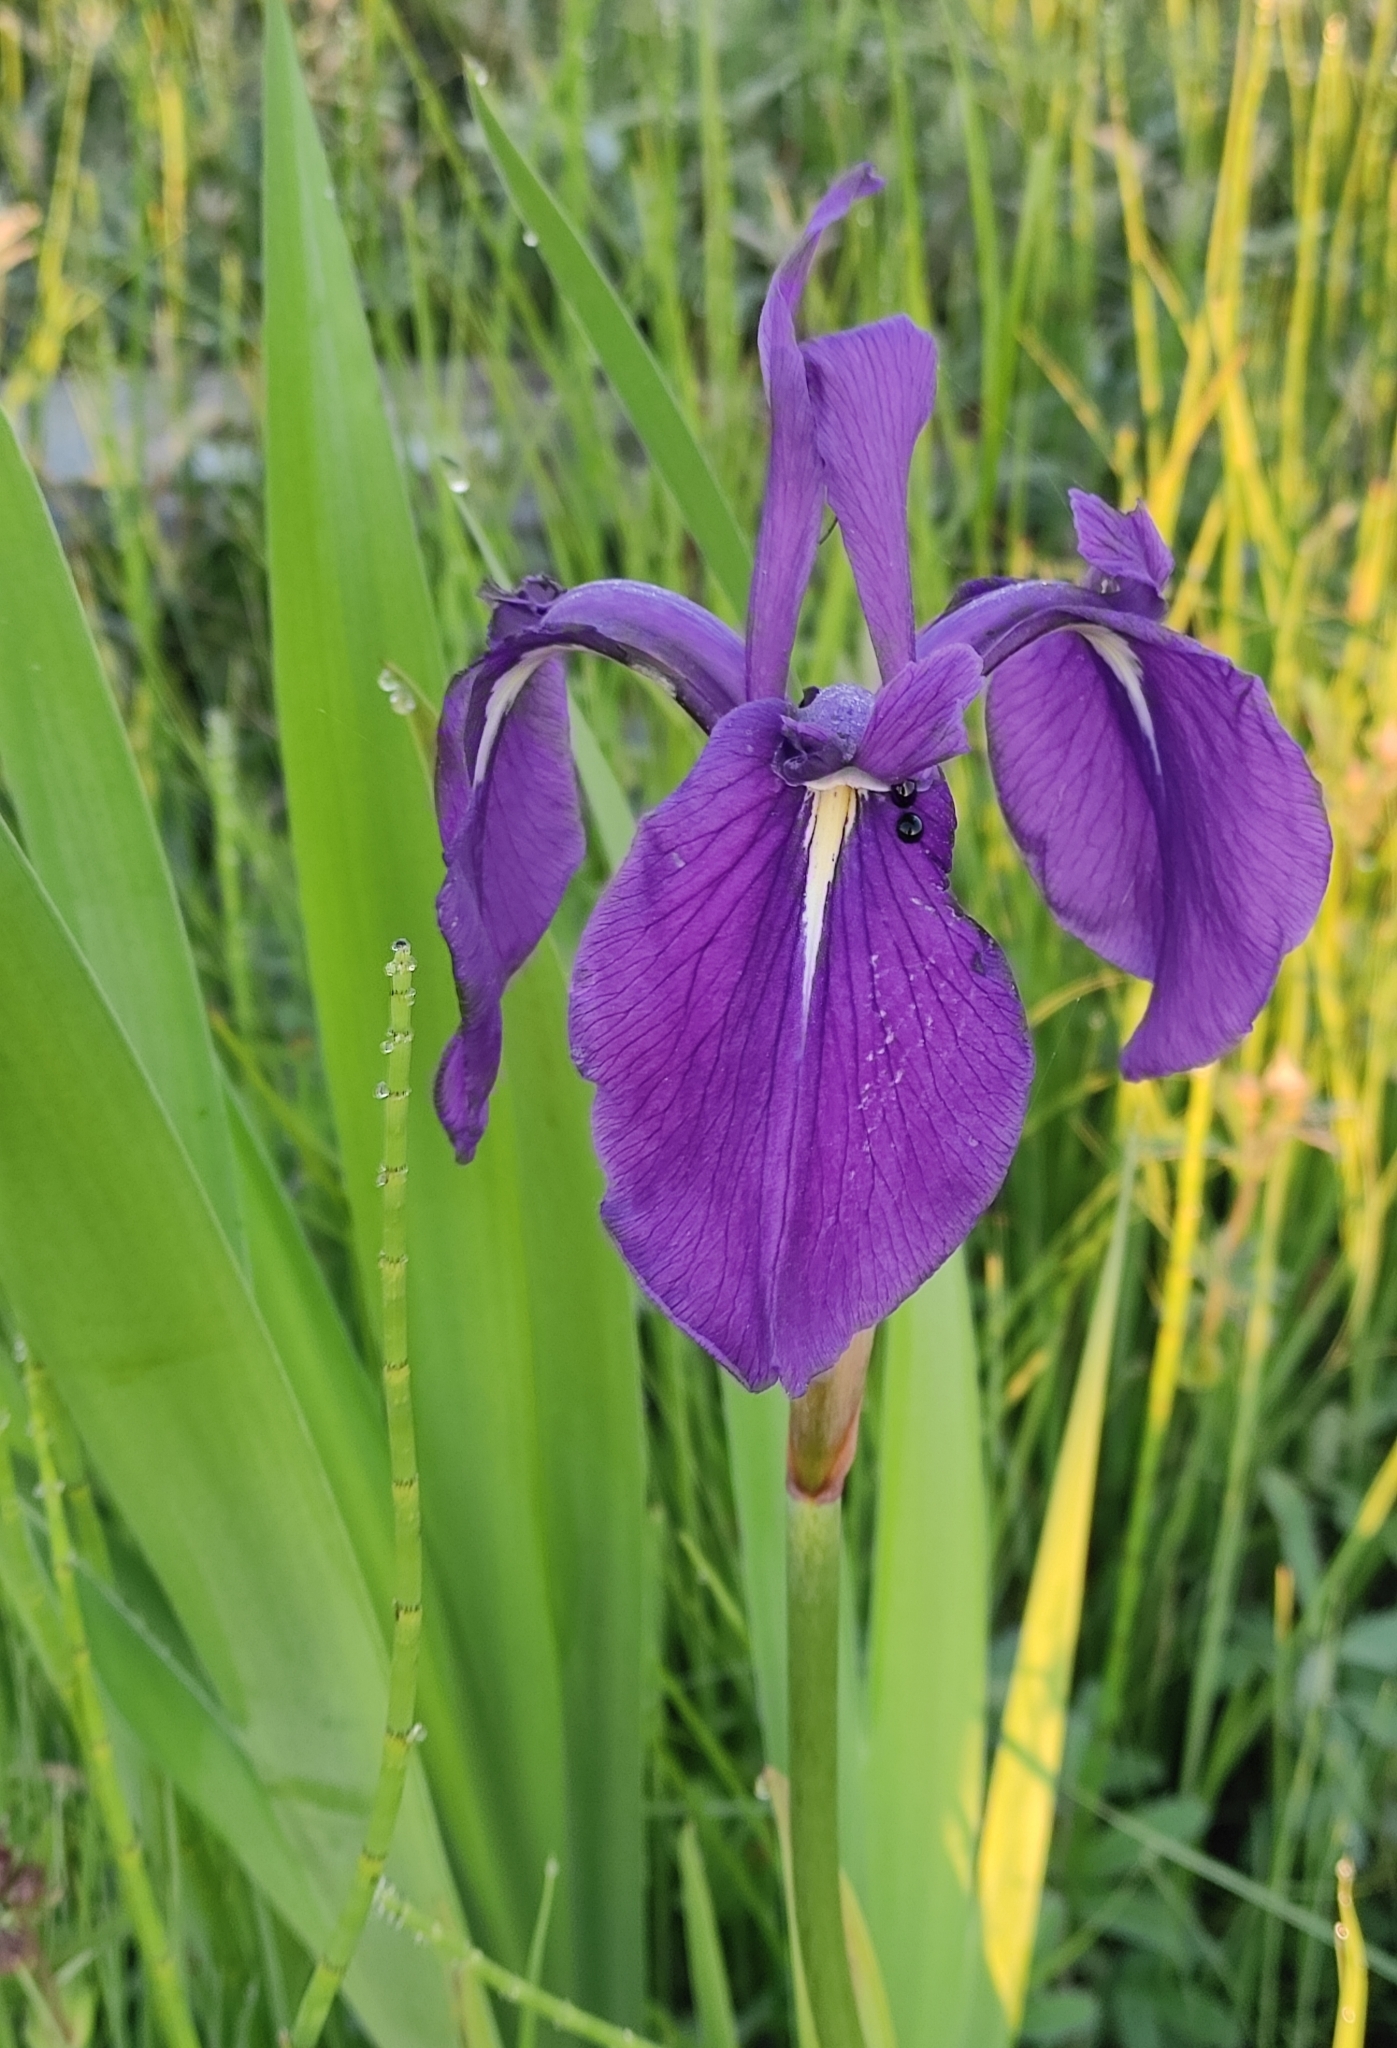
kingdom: Plantae
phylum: Tracheophyta
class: Liliopsida
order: Asparagales
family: Iridaceae
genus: Iris
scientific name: Iris laevigata
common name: Japanese iris
